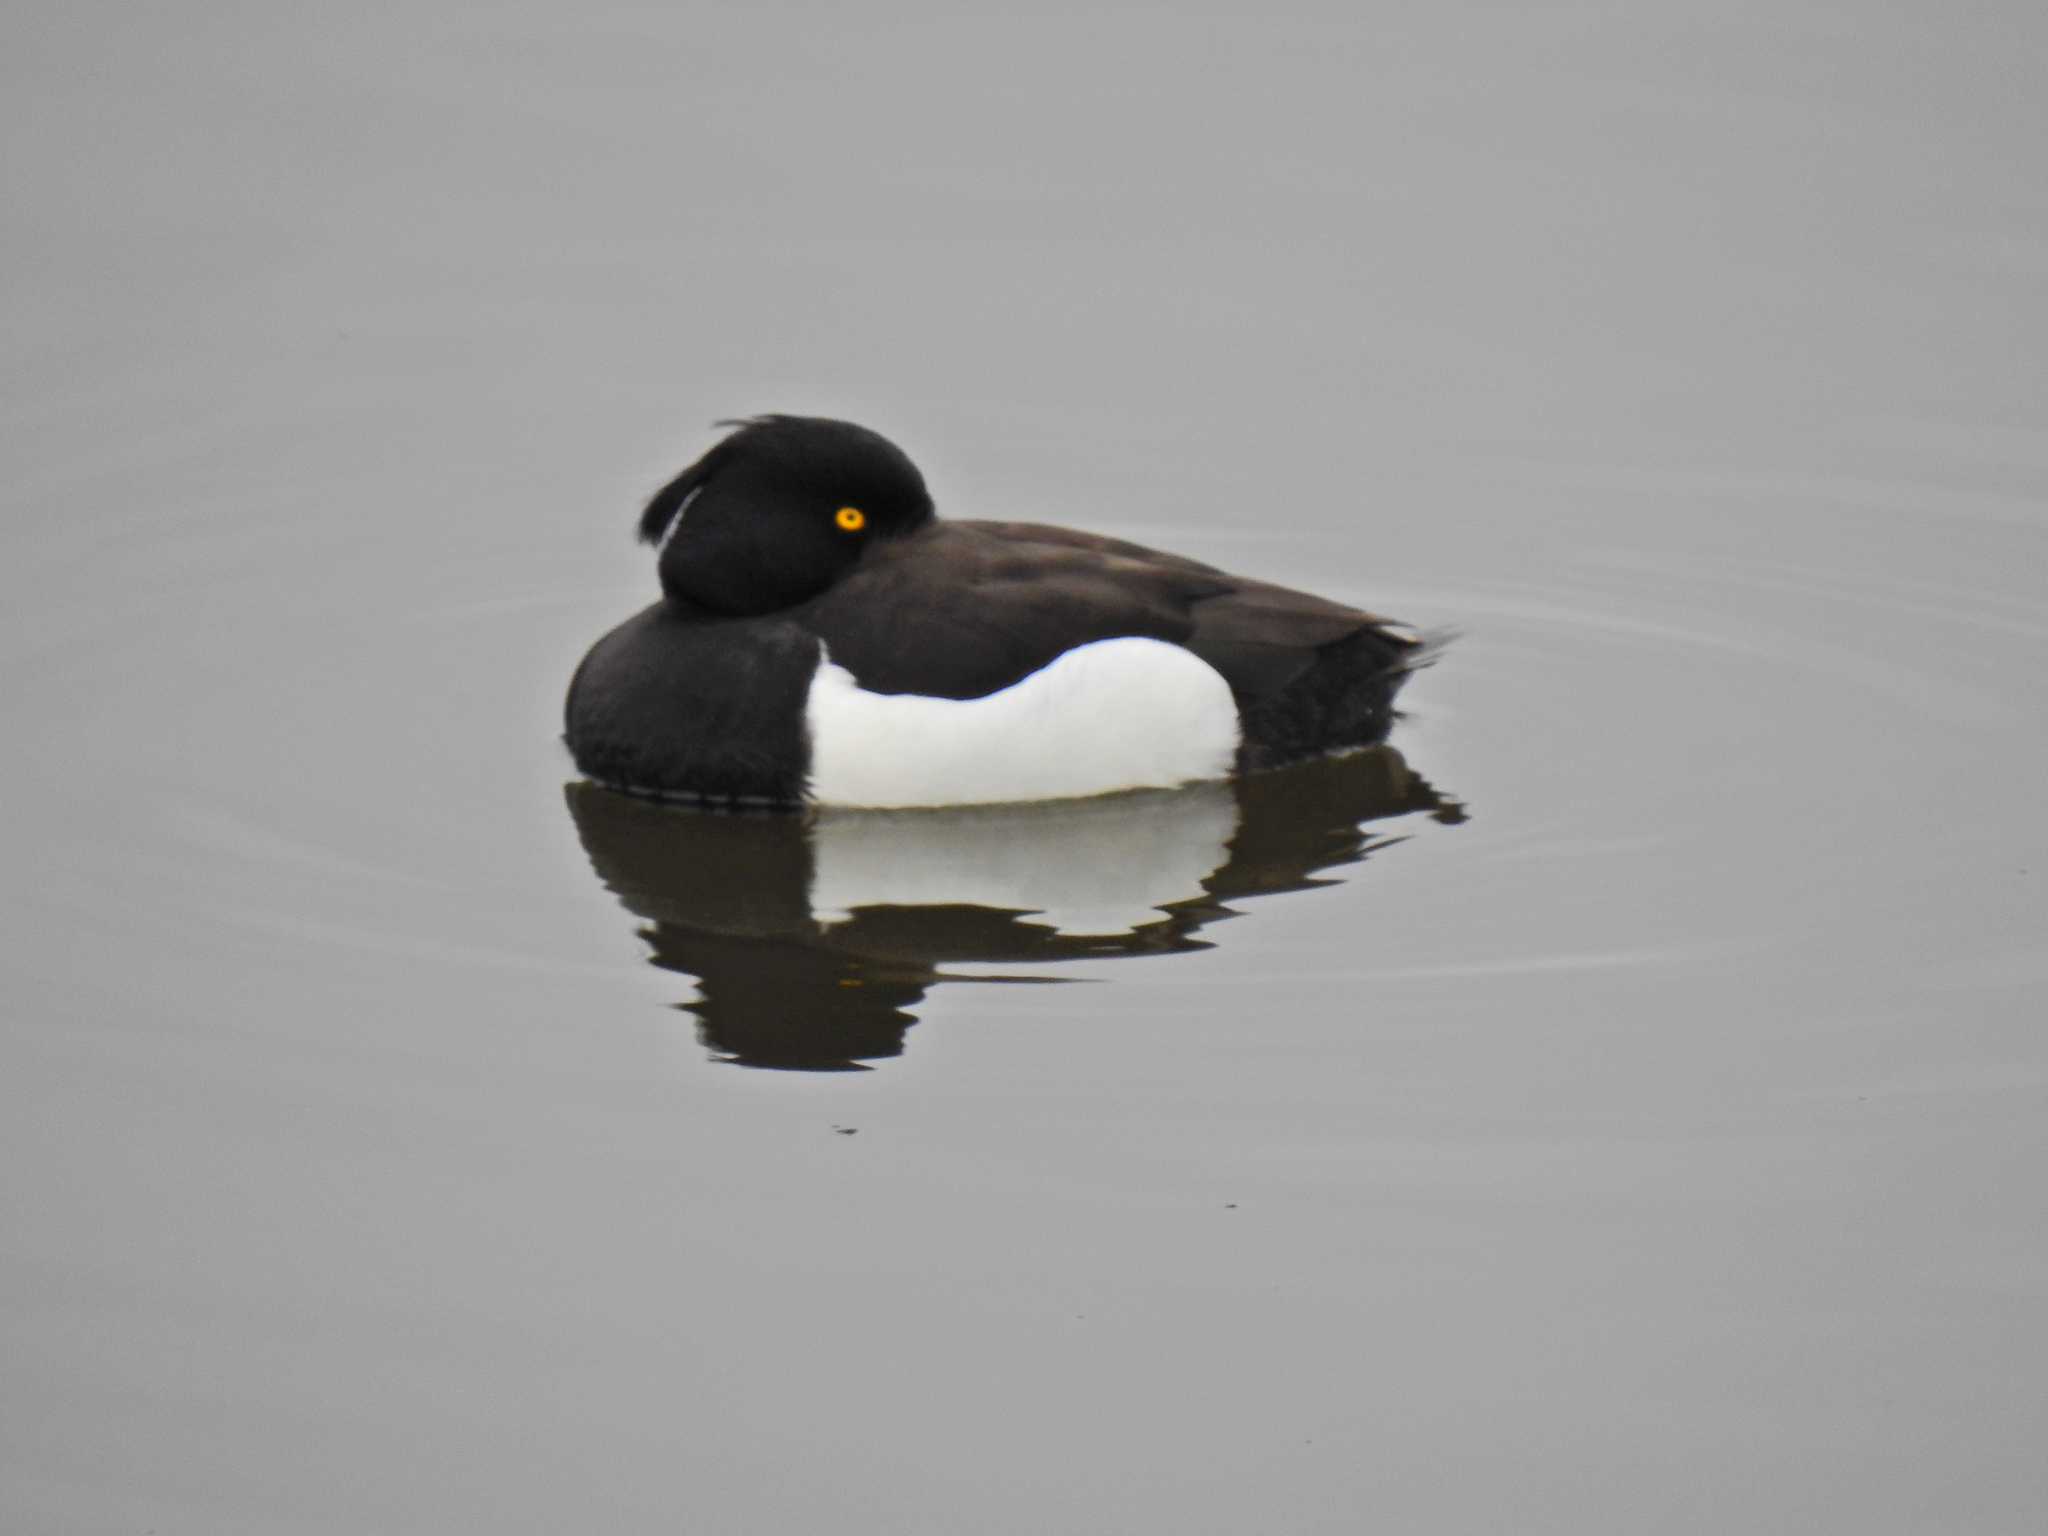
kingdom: Animalia
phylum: Chordata
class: Aves
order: Anseriformes
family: Anatidae
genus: Aythya
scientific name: Aythya fuligula
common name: Tufted duck
